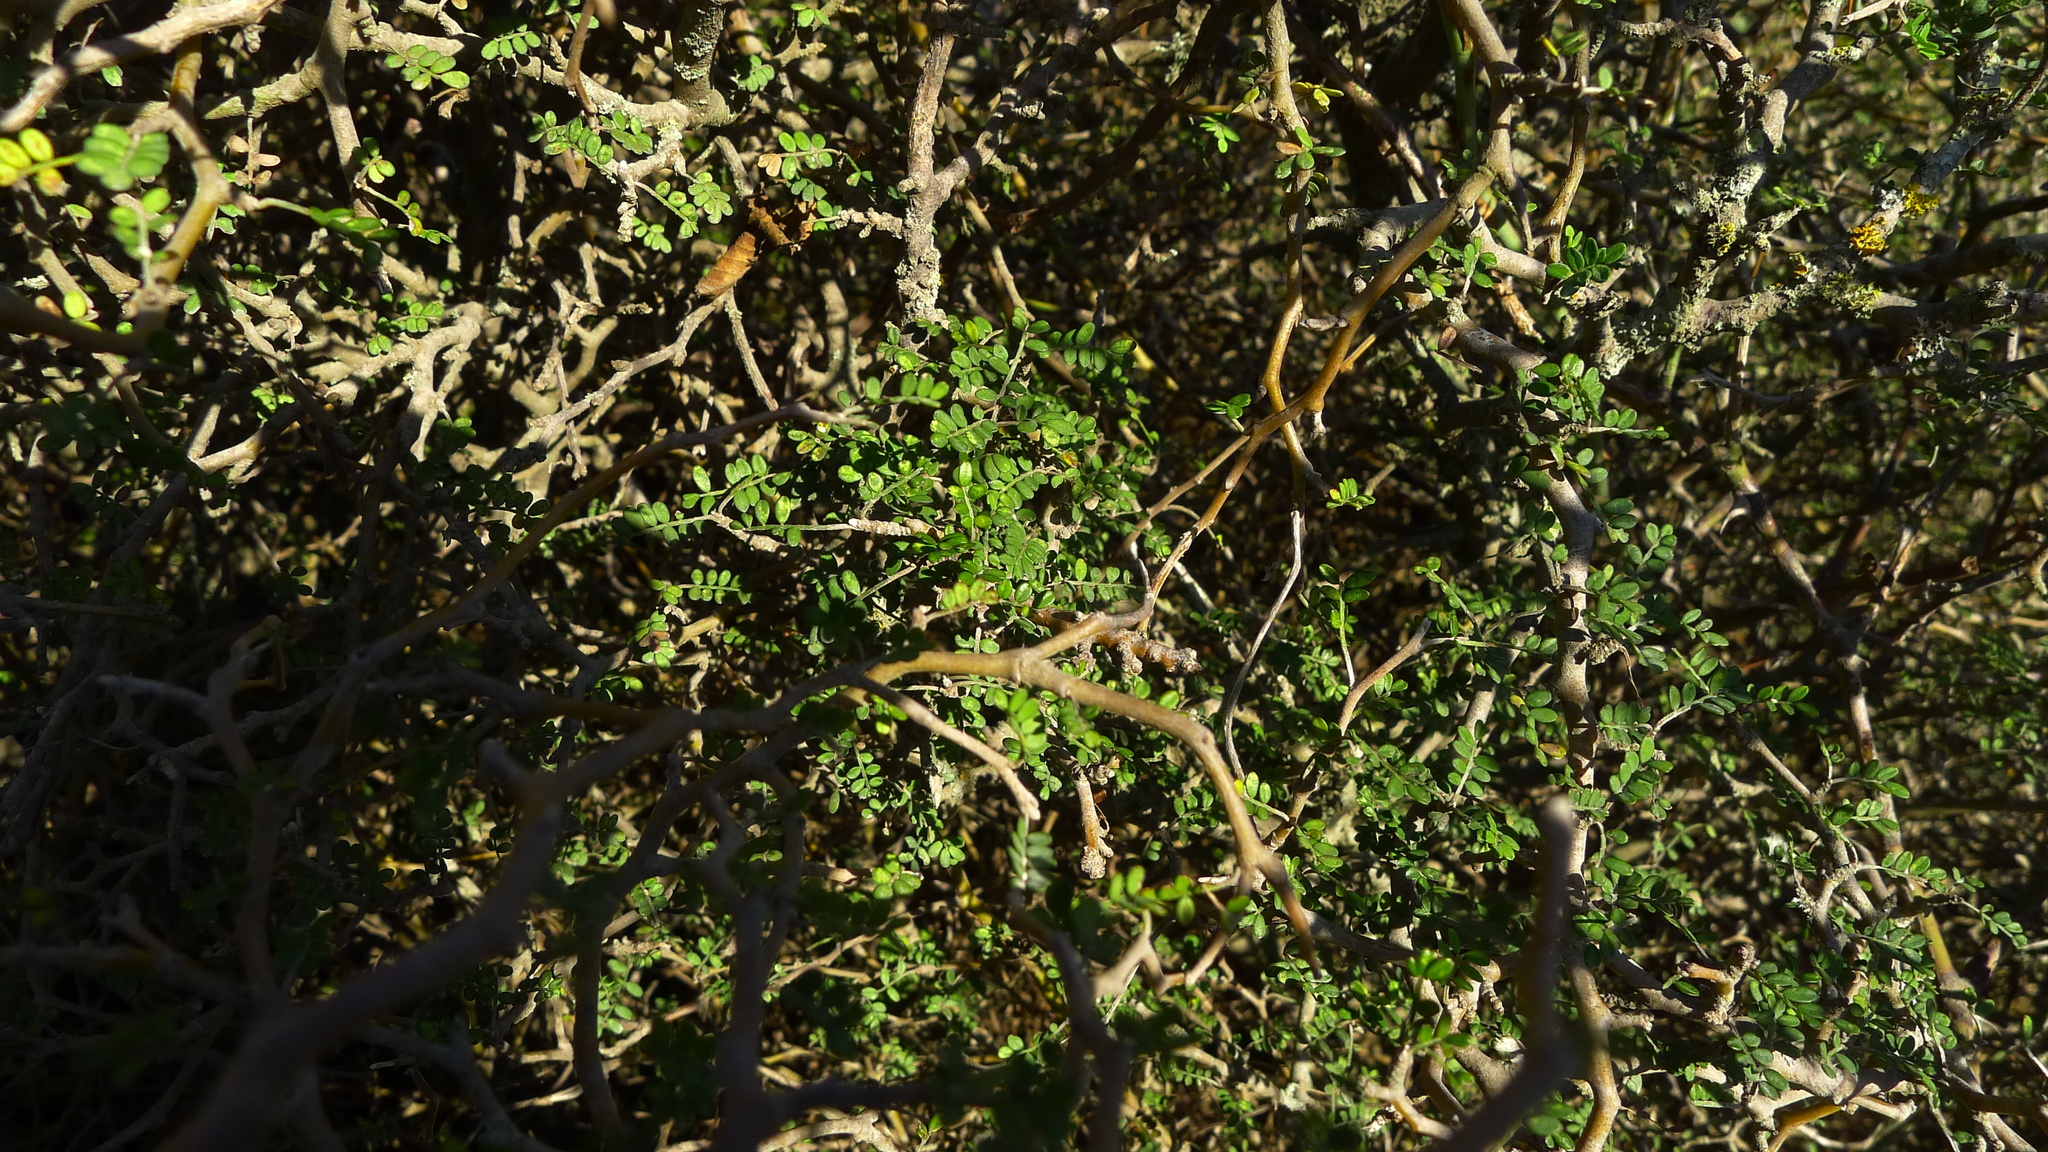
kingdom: Plantae
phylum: Tracheophyta
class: Magnoliopsida
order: Fabales
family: Fabaceae
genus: Sophora
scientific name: Sophora prostrata
